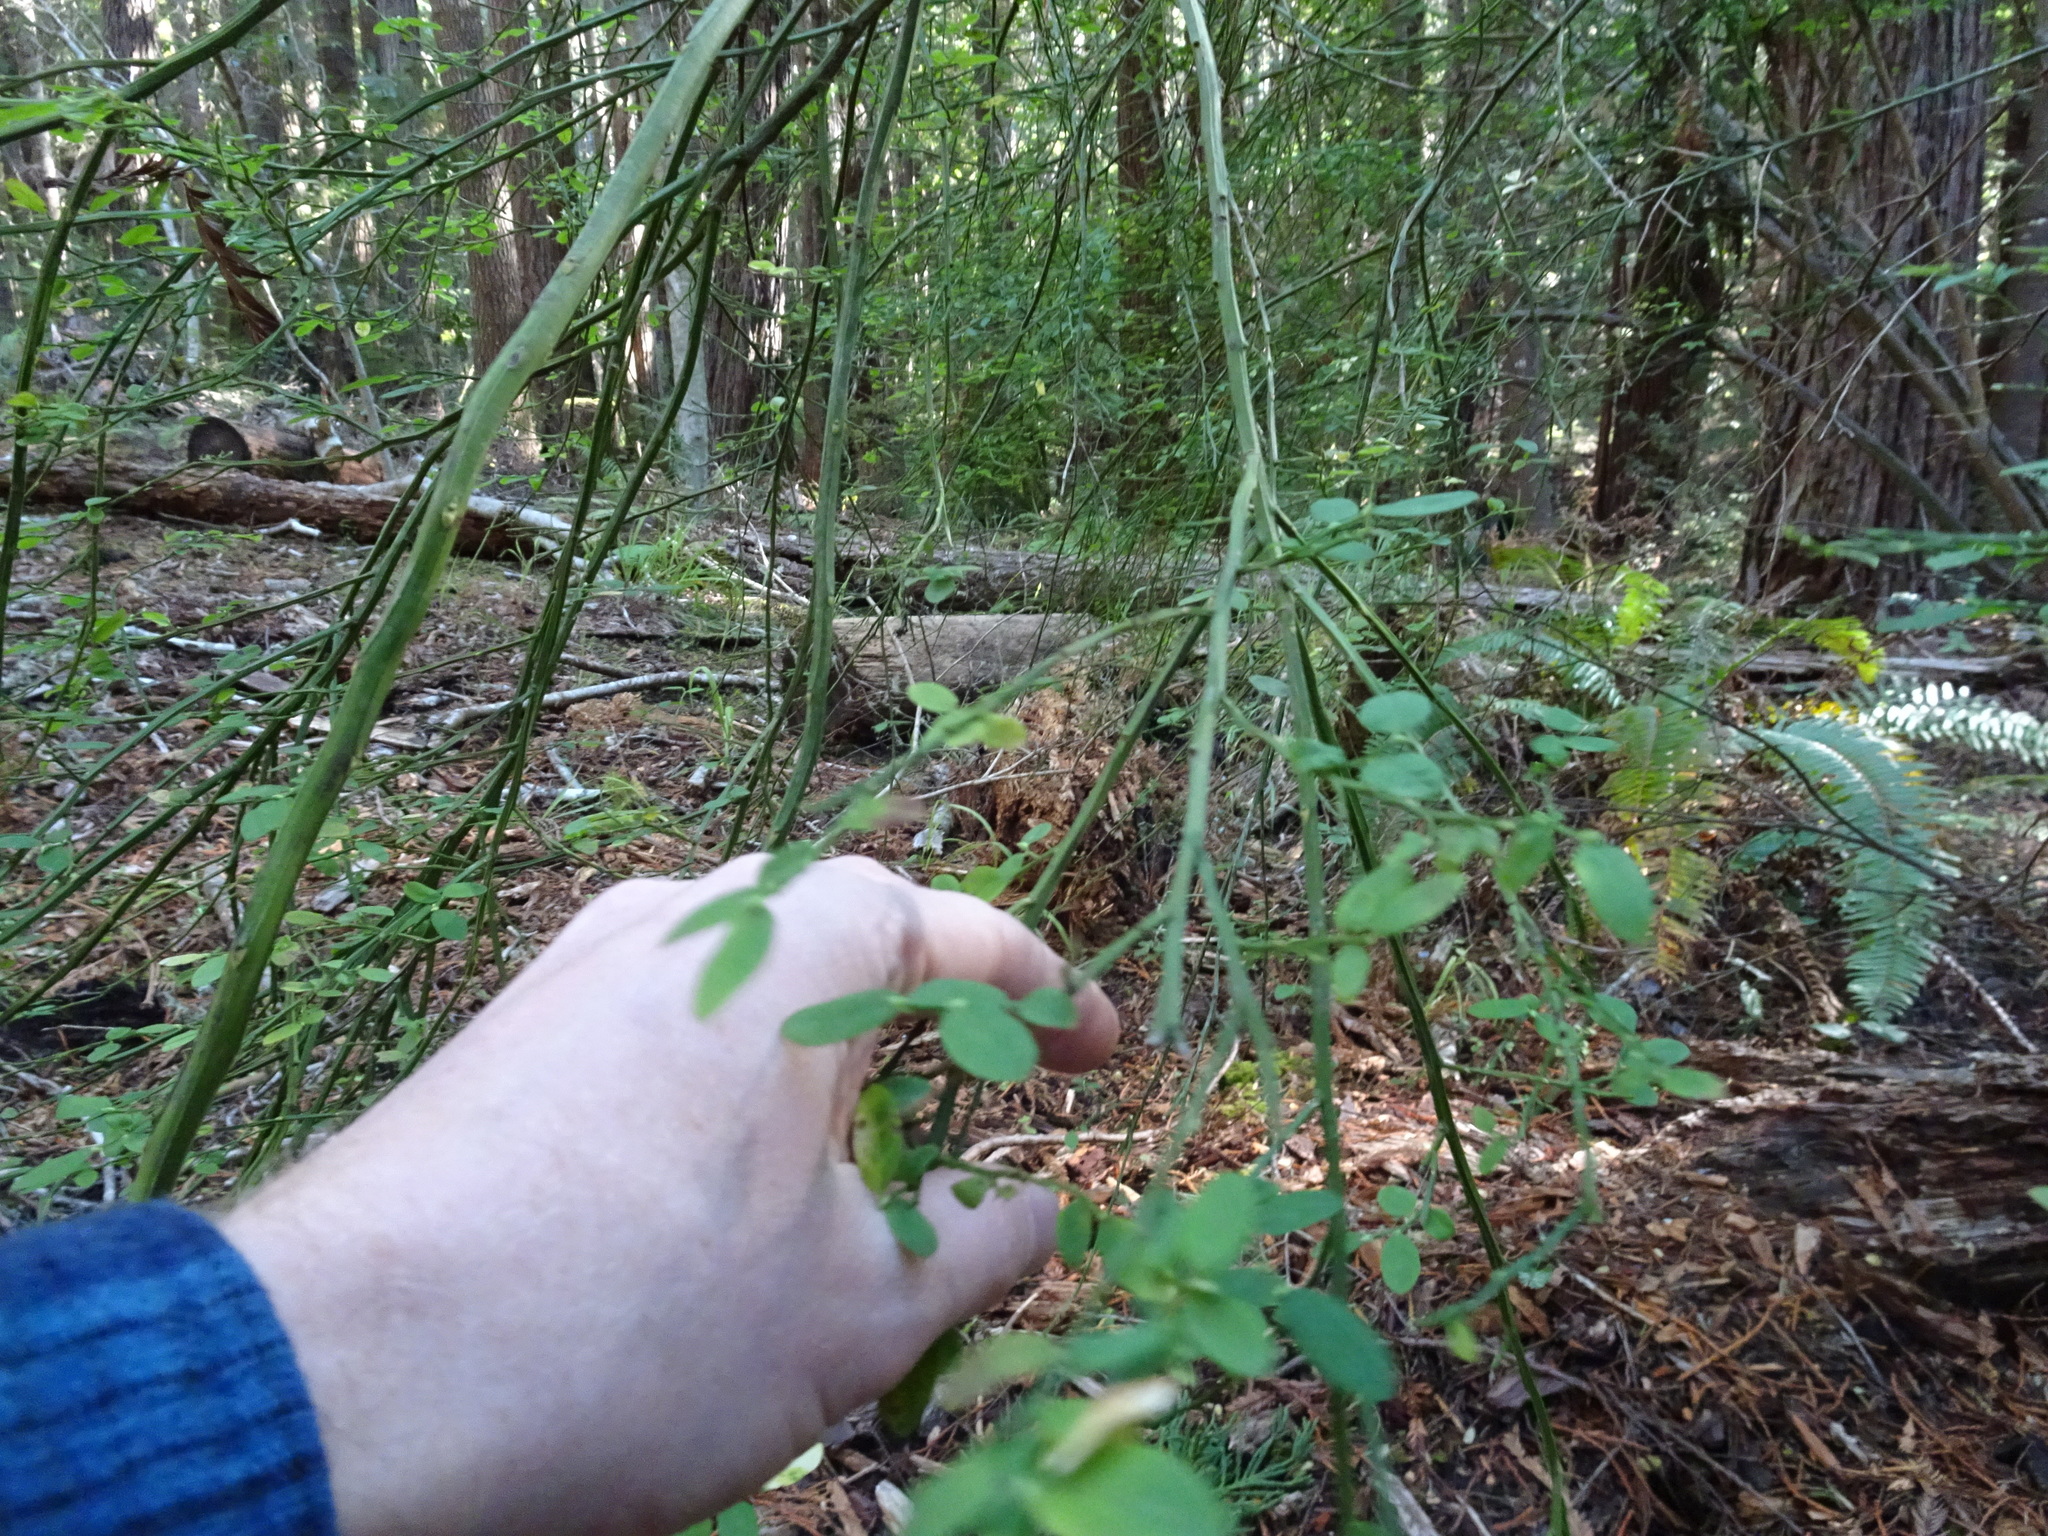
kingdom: Plantae
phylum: Tracheophyta
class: Magnoliopsida
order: Ericales
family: Ericaceae
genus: Vaccinium
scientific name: Vaccinium parvifolium
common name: Red-huckleberry
